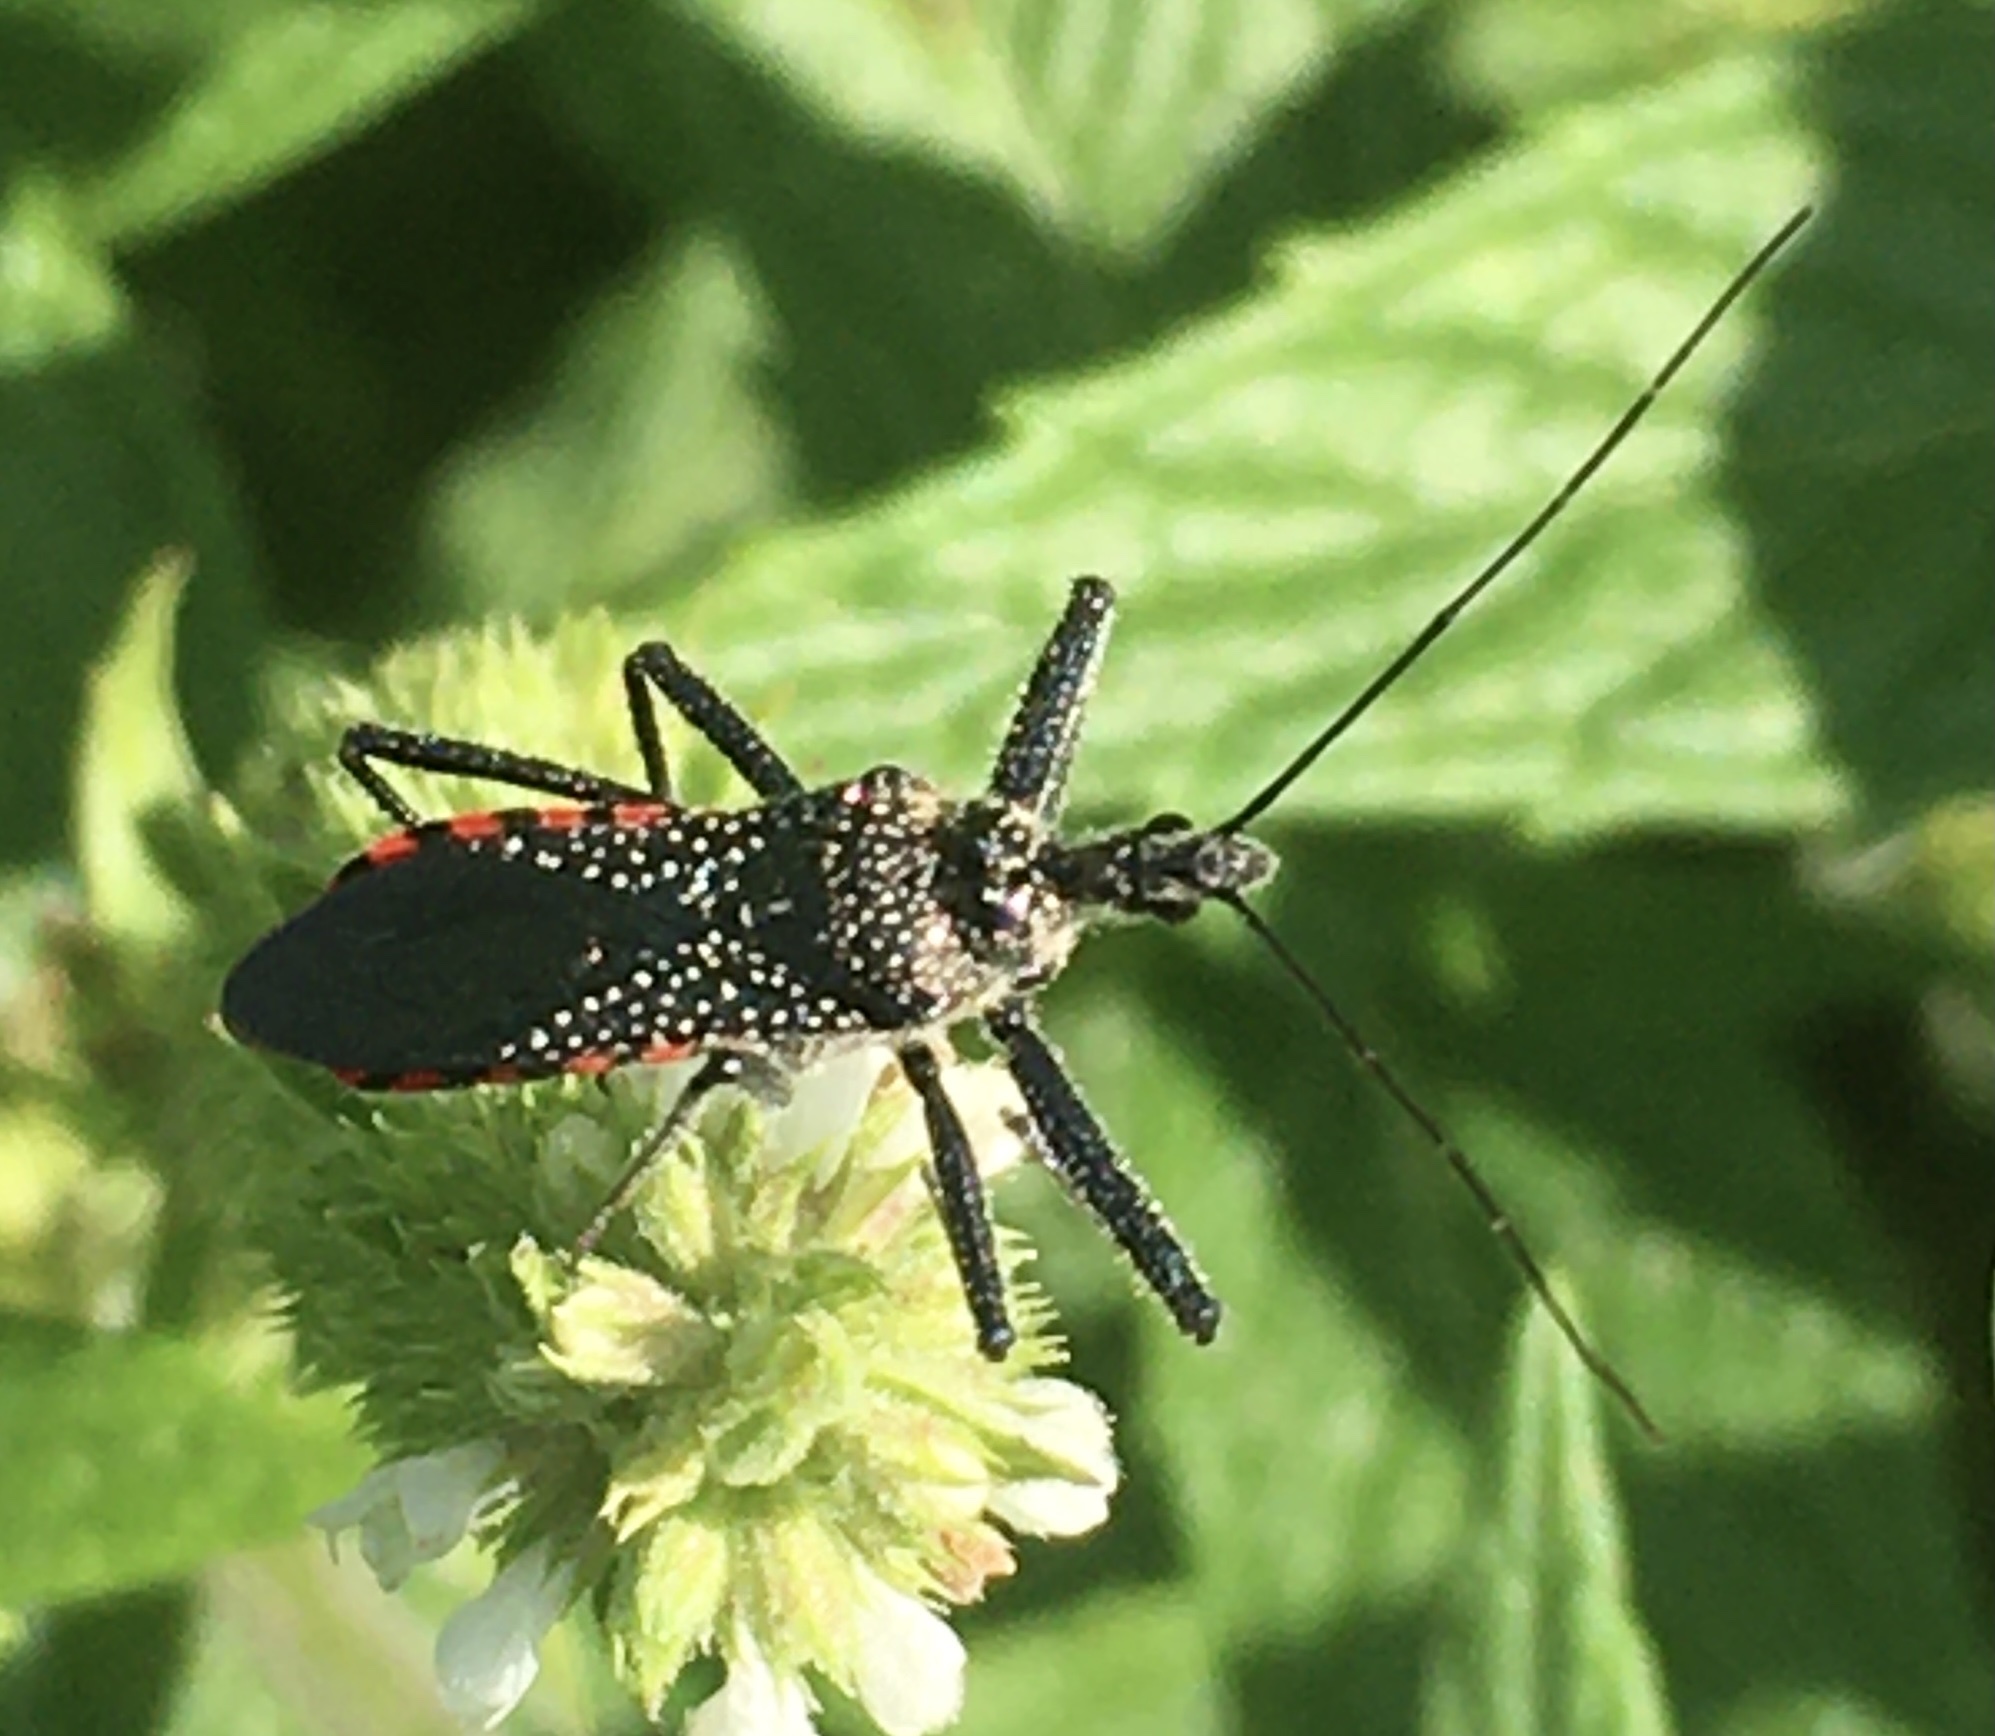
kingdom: Animalia
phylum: Arthropoda
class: Insecta
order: Hemiptera
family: Reduviidae
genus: Rhynocoris
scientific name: Rhynocoris tristis
